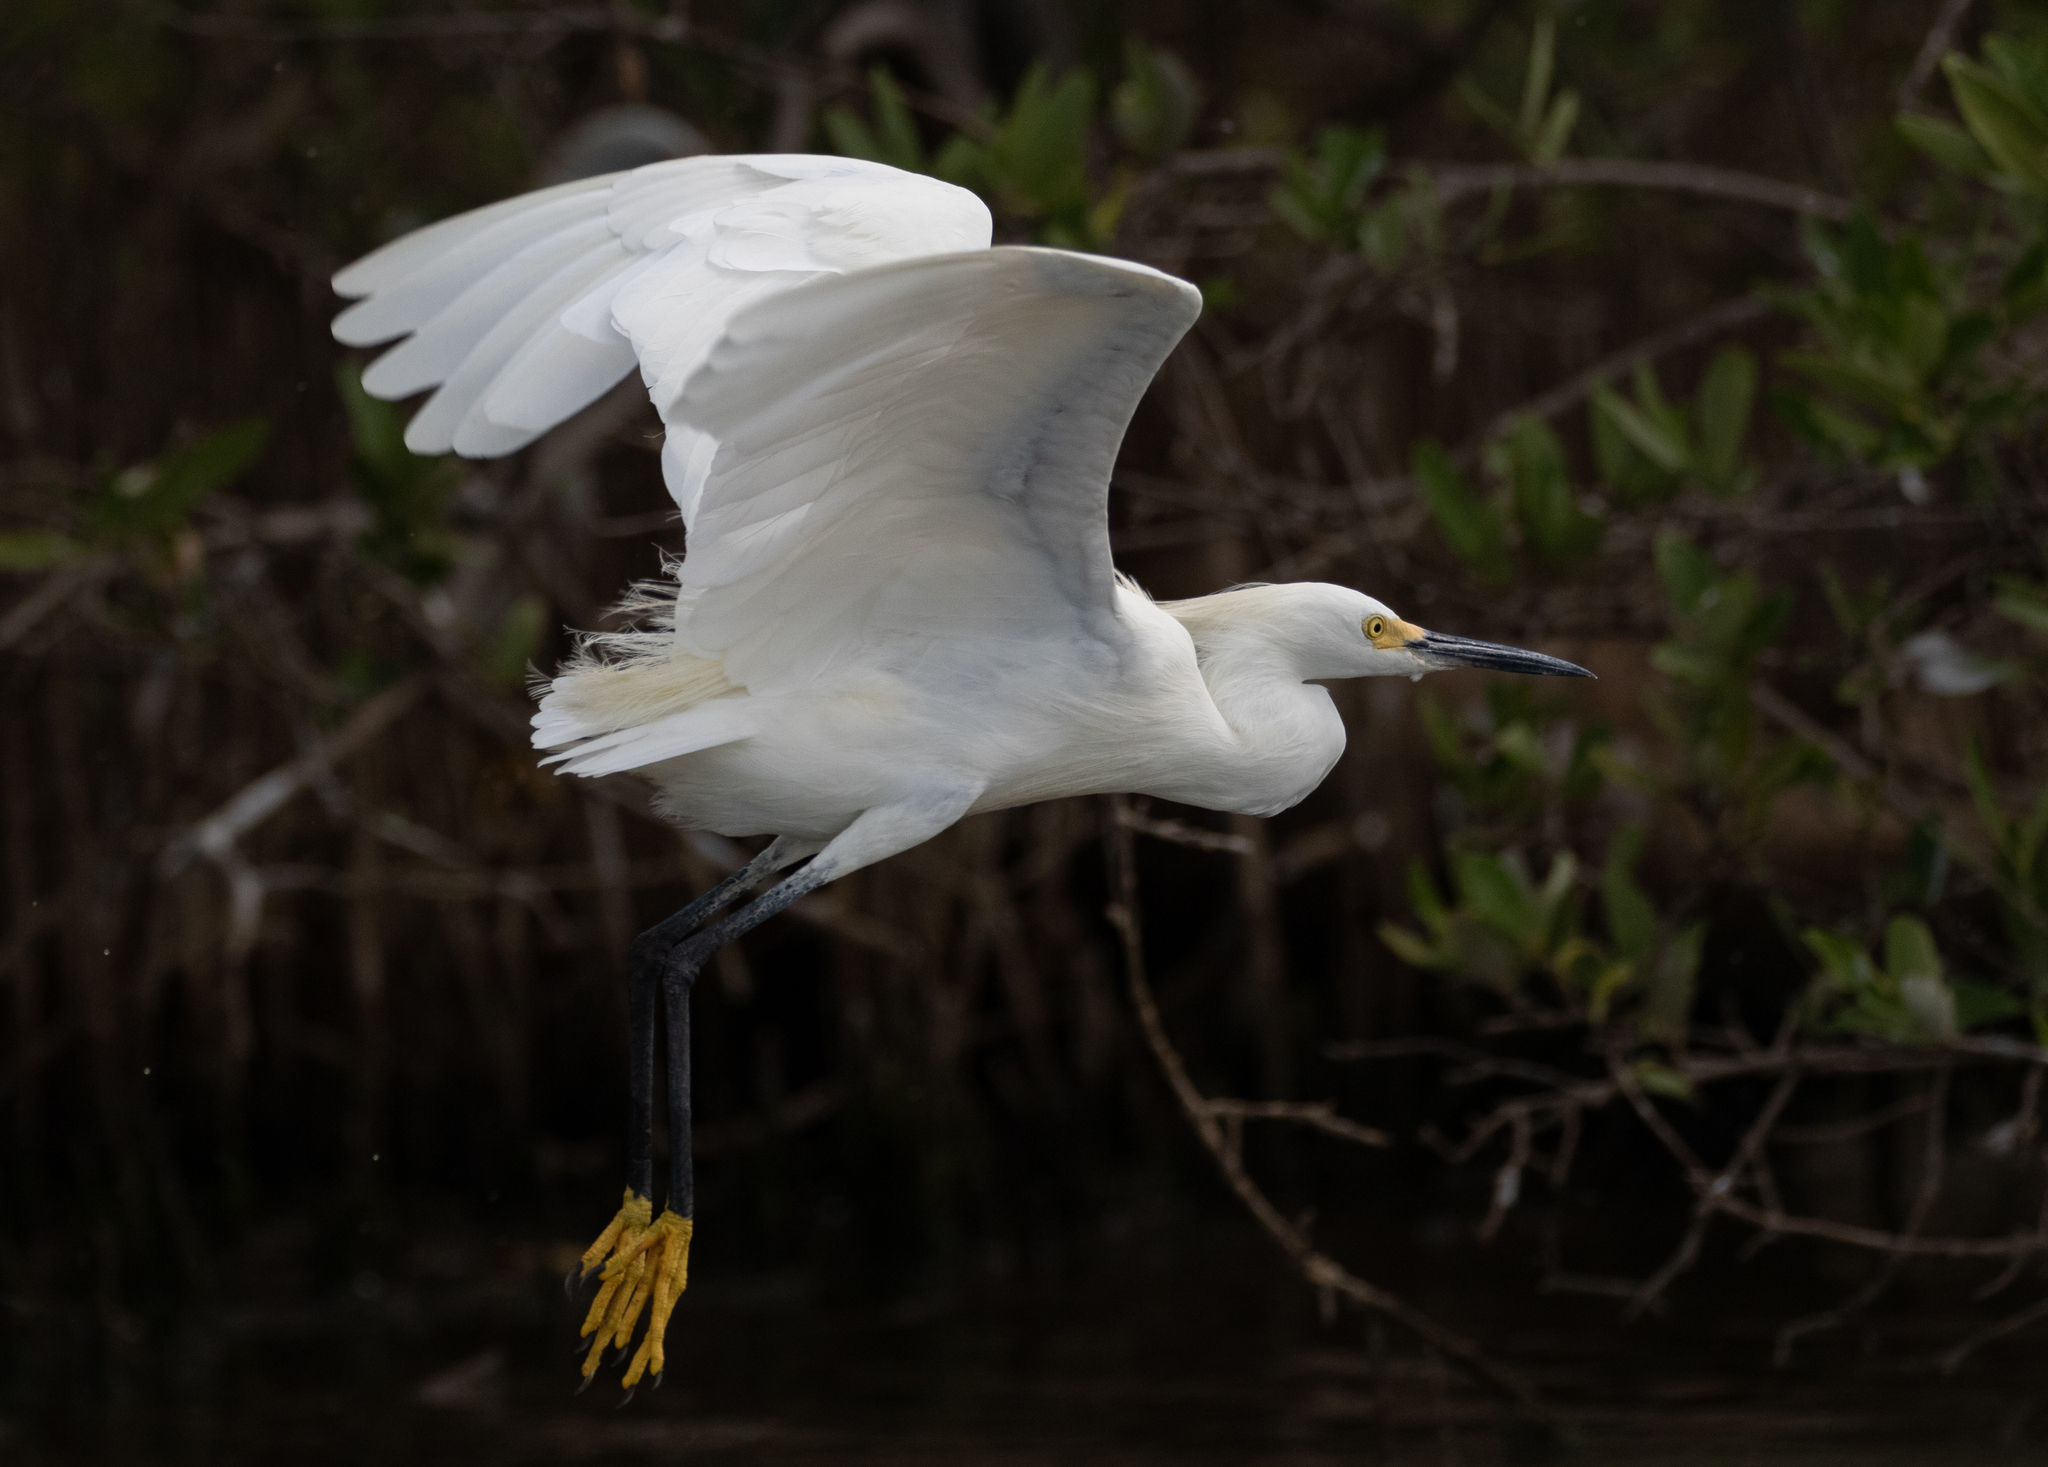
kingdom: Animalia
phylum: Chordata
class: Aves
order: Pelecaniformes
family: Ardeidae
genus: Egretta
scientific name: Egretta thula
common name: Snowy egret
